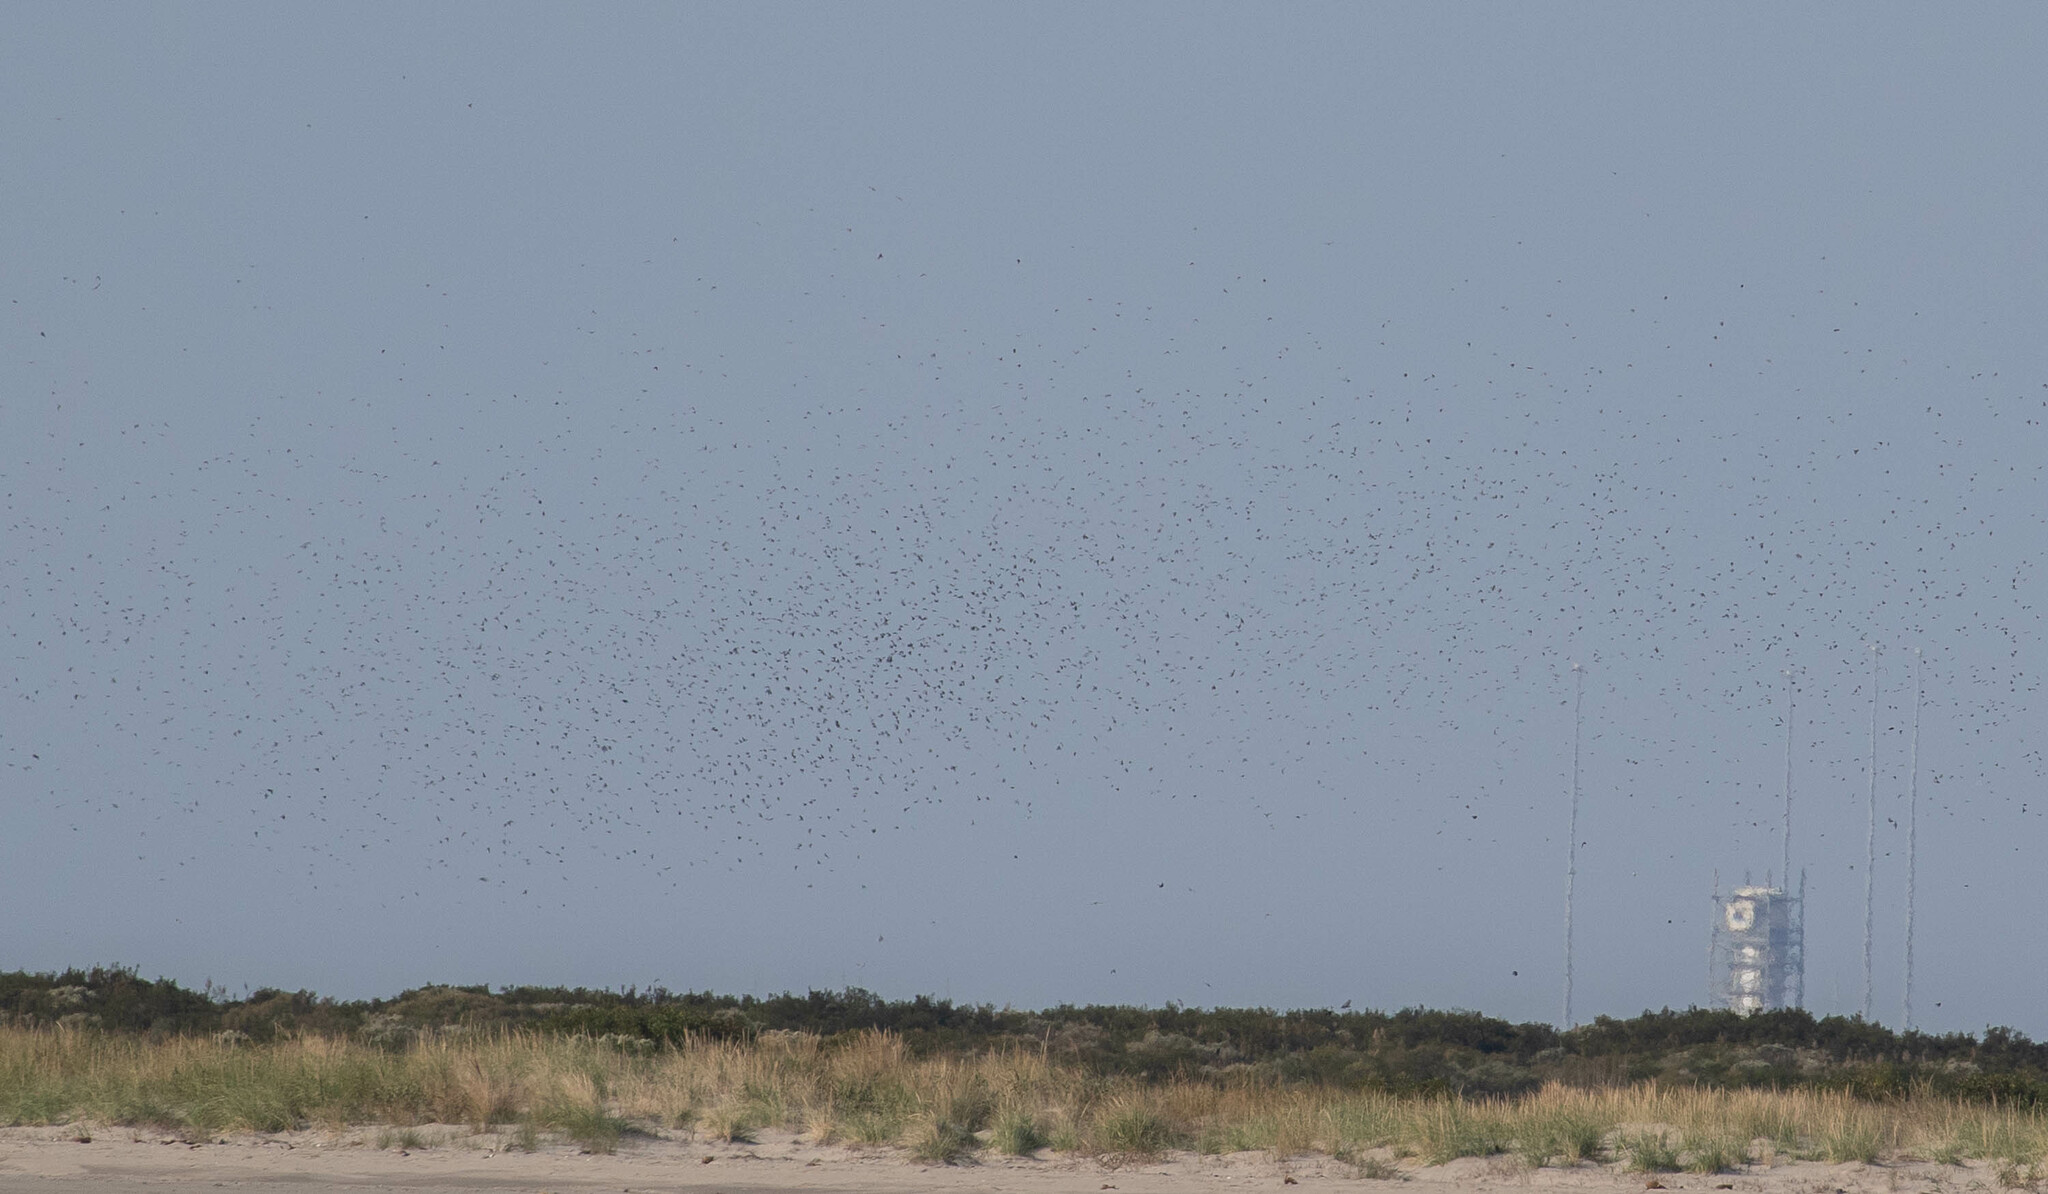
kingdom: Animalia
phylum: Chordata
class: Aves
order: Passeriformes
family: Hirundinidae
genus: Tachycineta
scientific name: Tachycineta bicolor
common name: Tree swallow
